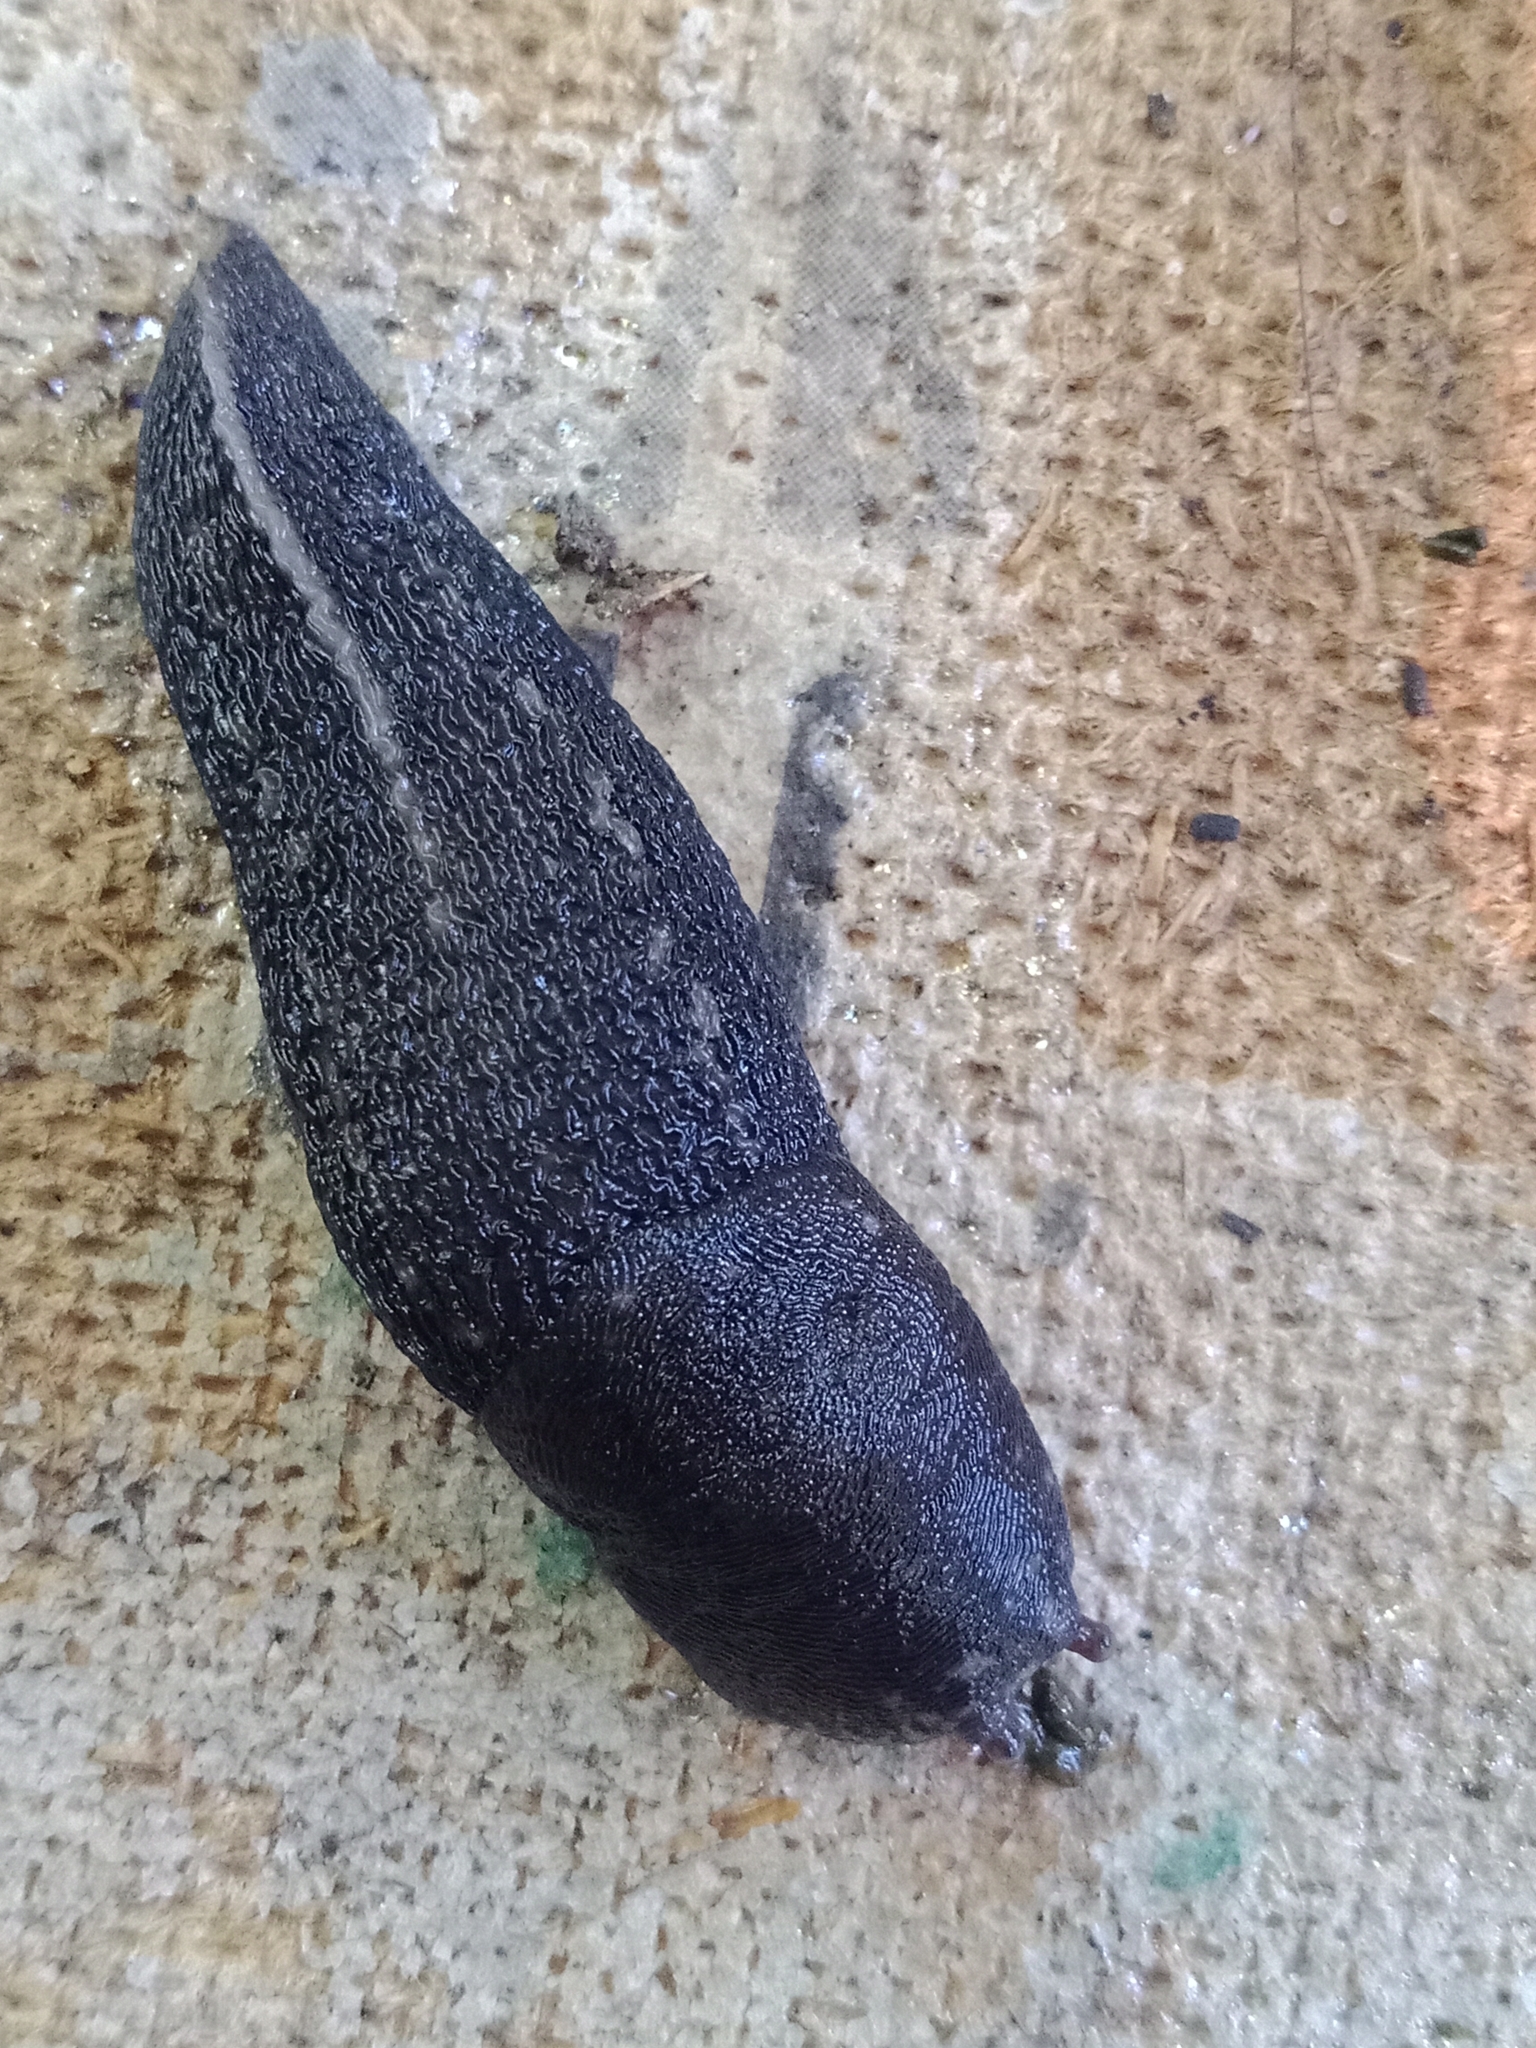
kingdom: Animalia
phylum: Mollusca
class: Gastropoda
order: Stylommatophora
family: Limacidae
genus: Limax
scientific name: Limax cinereoniger
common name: Ash-black slug
